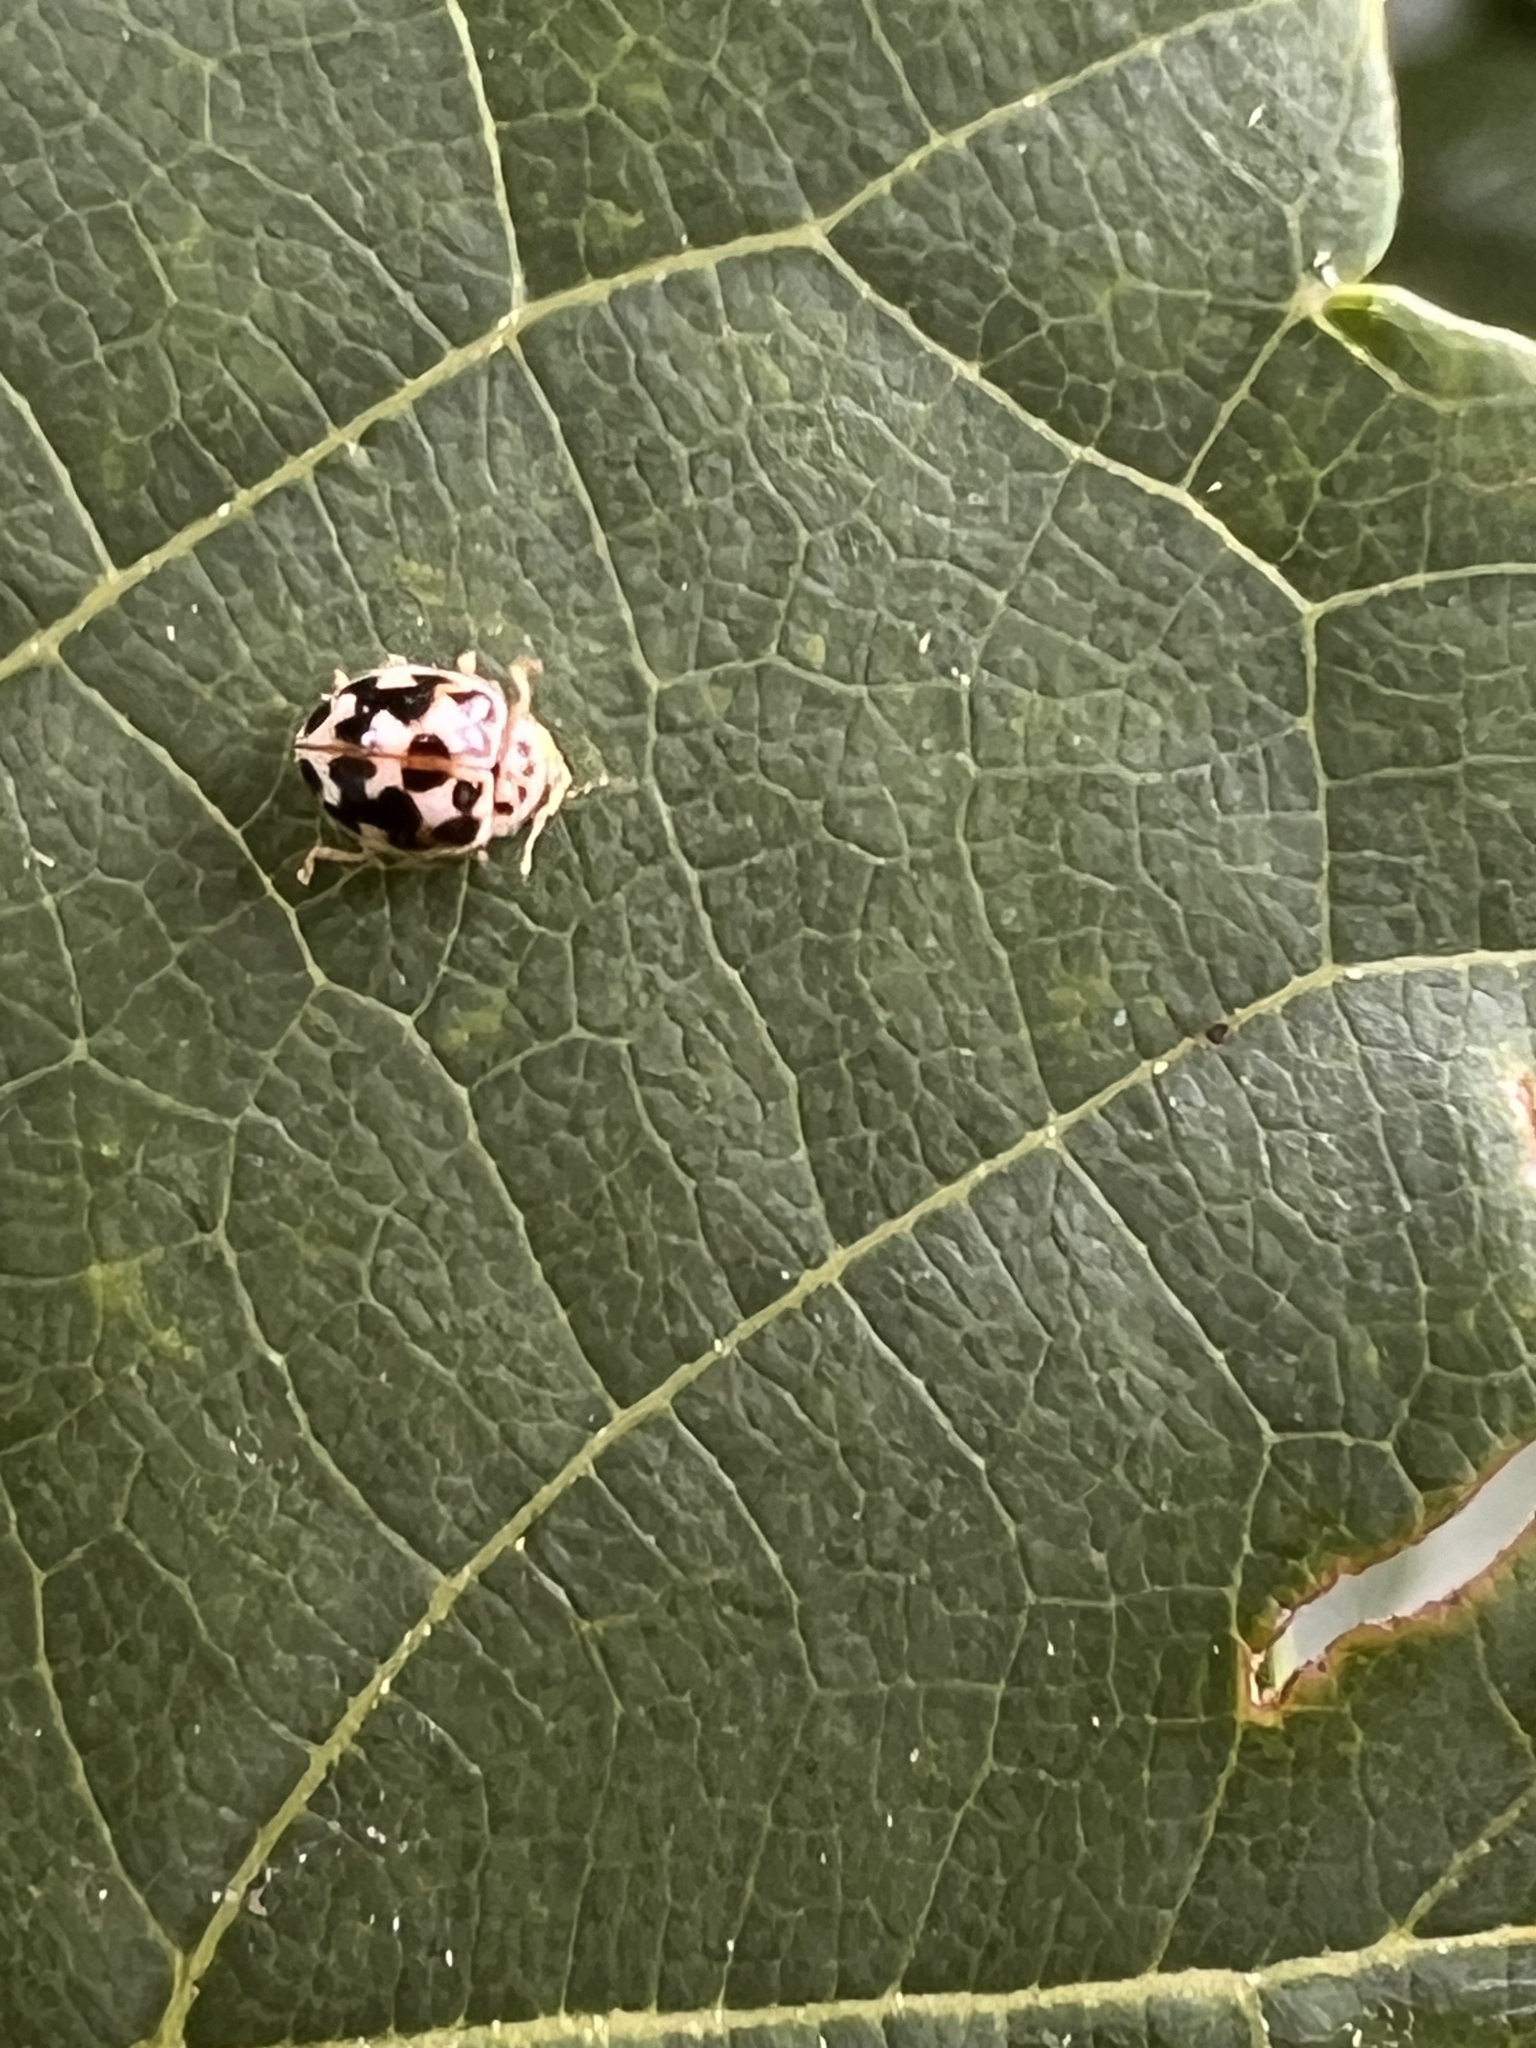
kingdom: Animalia
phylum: Arthropoda
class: Insecta
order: Coleoptera
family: Coccinellidae
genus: Psyllobora
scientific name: Psyllobora vigintimaculata
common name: Ladybird beetle
